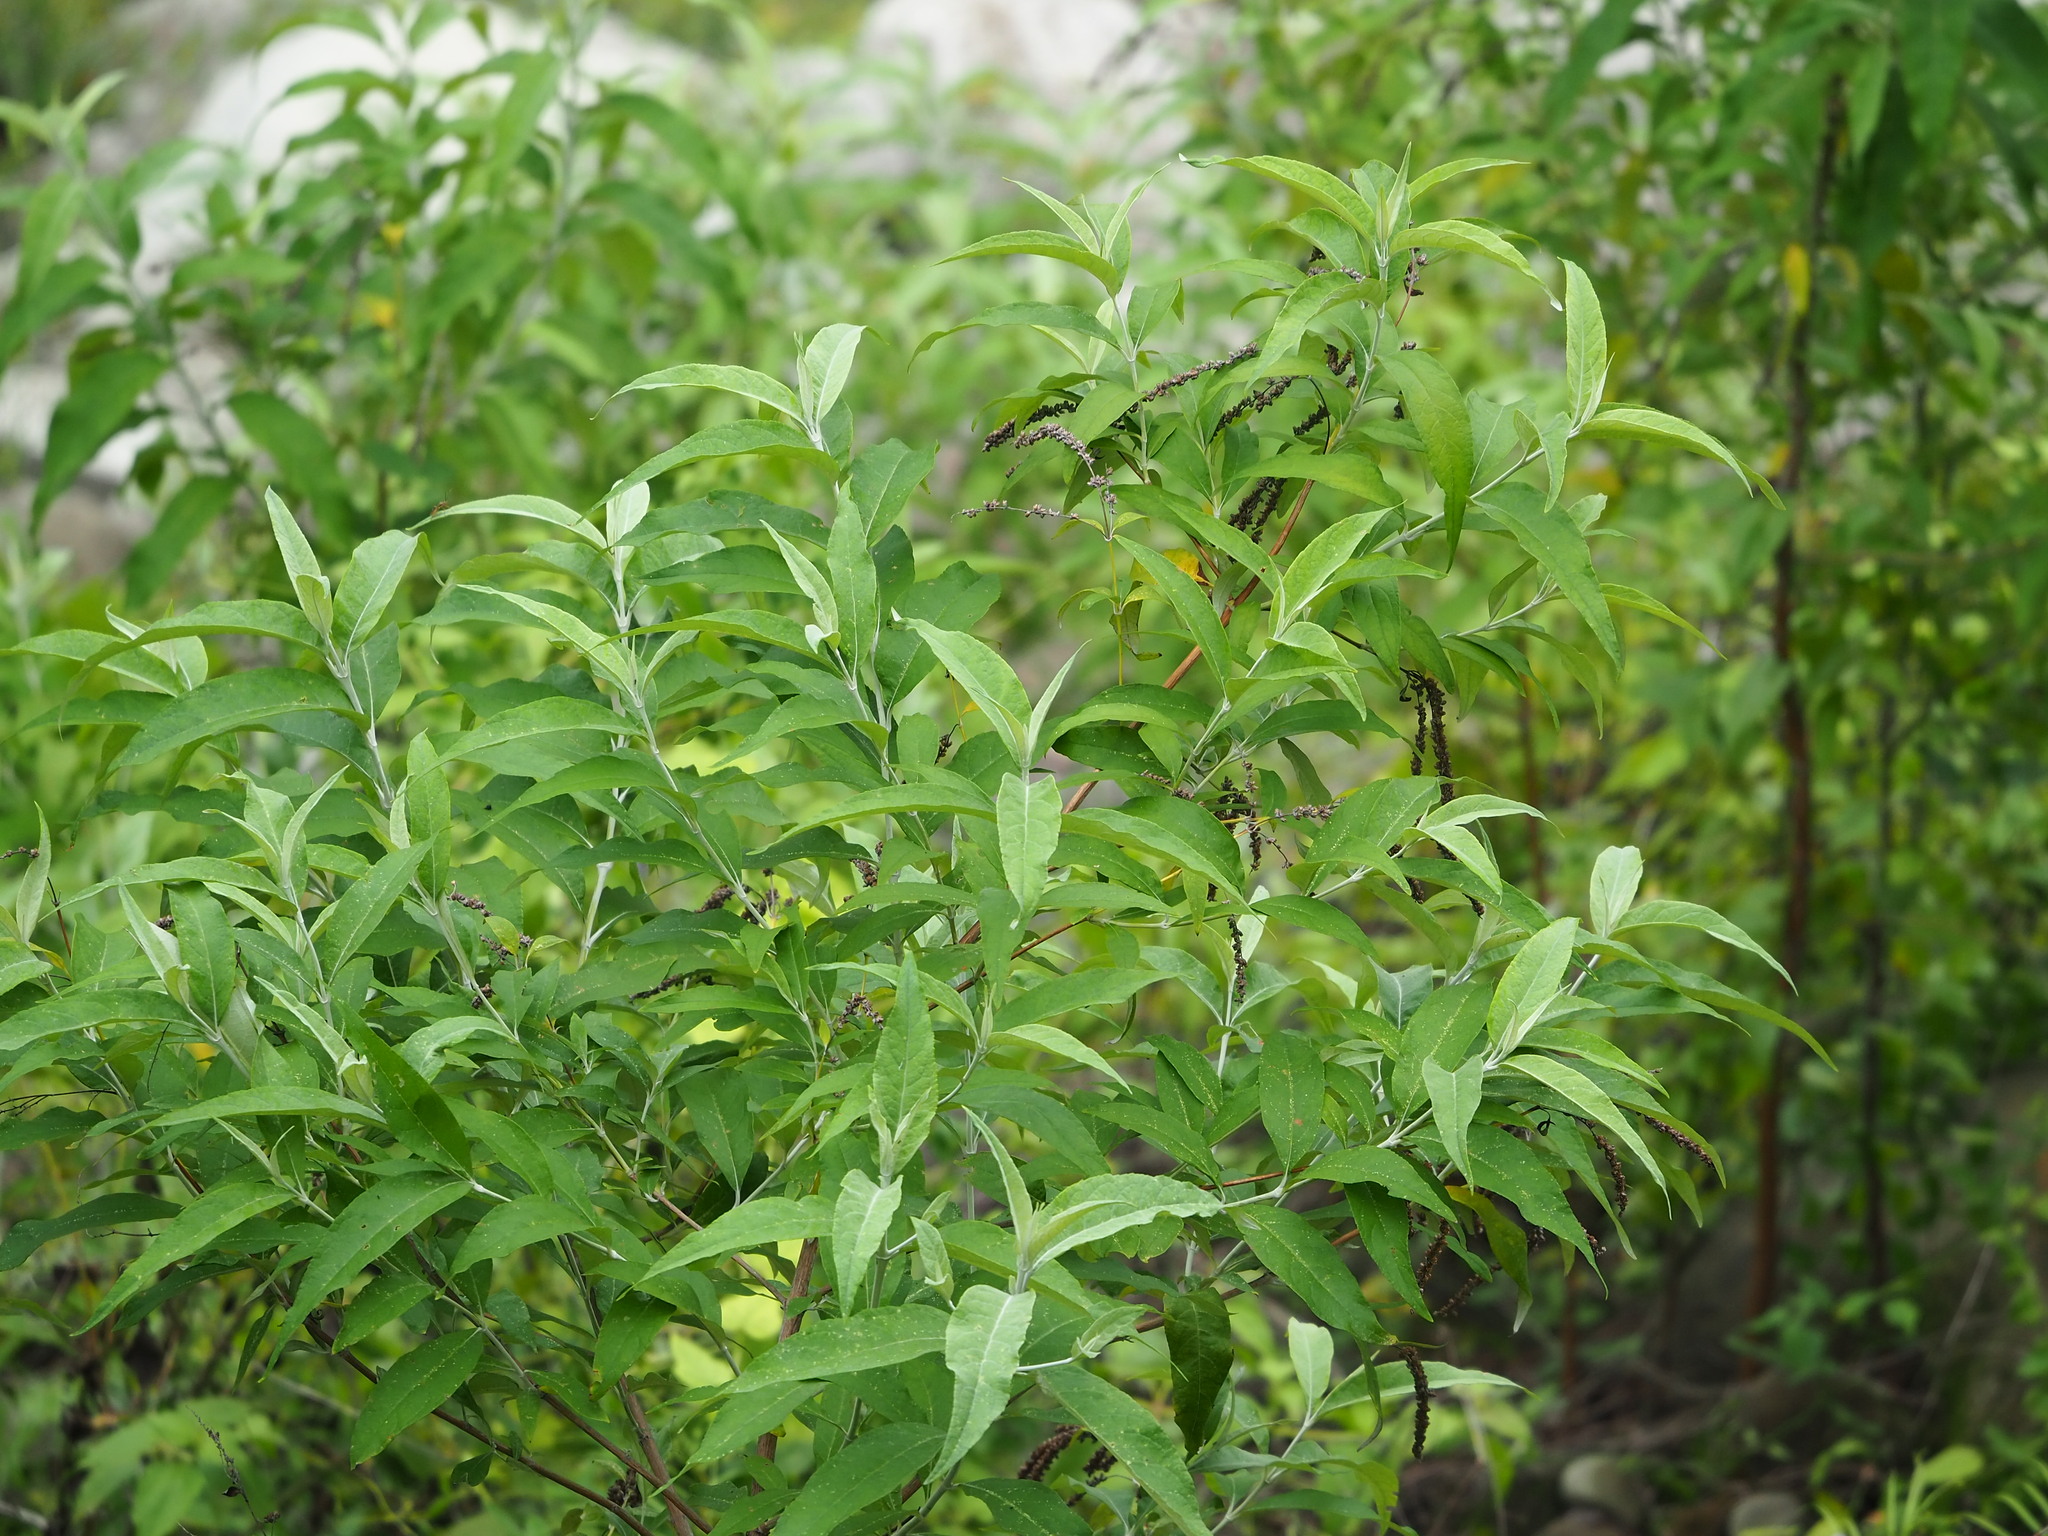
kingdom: Plantae
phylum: Tracheophyta
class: Magnoliopsida
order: Lamiales
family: Scrophulariaceae
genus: Buddleja
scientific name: Buddleja asiatica
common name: Dog tail
